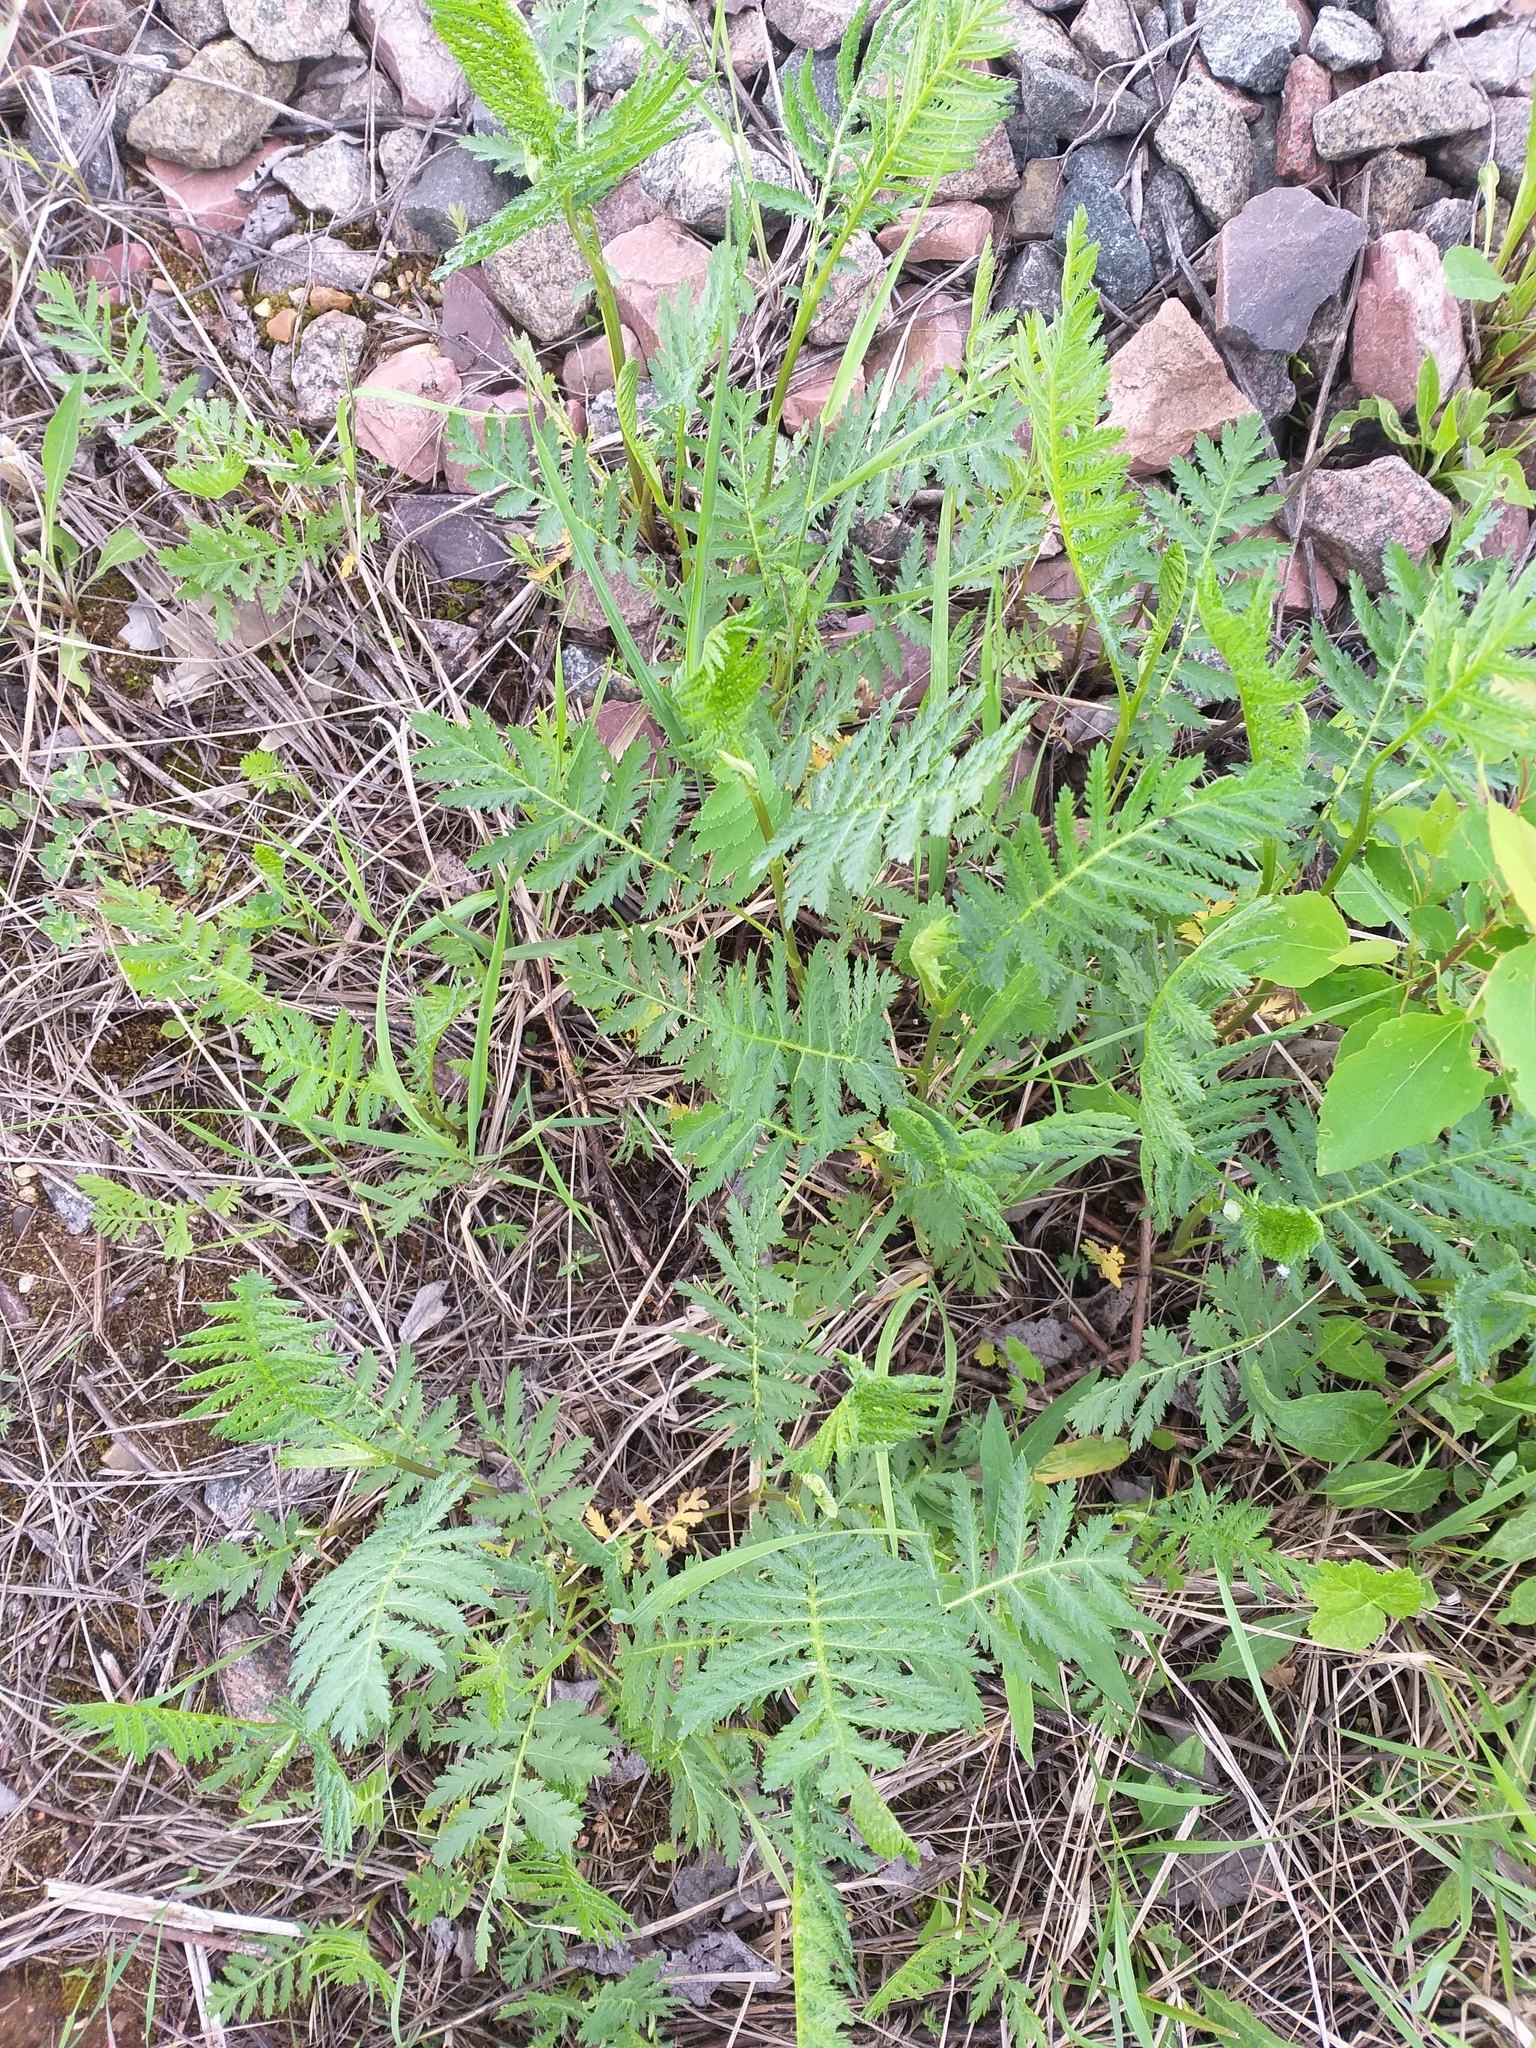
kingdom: Plantae
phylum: Tracheophyta
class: Magnoliopsida
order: Asterales
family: Asteraceae
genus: Tanacetum
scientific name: Tanacetum vulgare
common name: Common tansy
